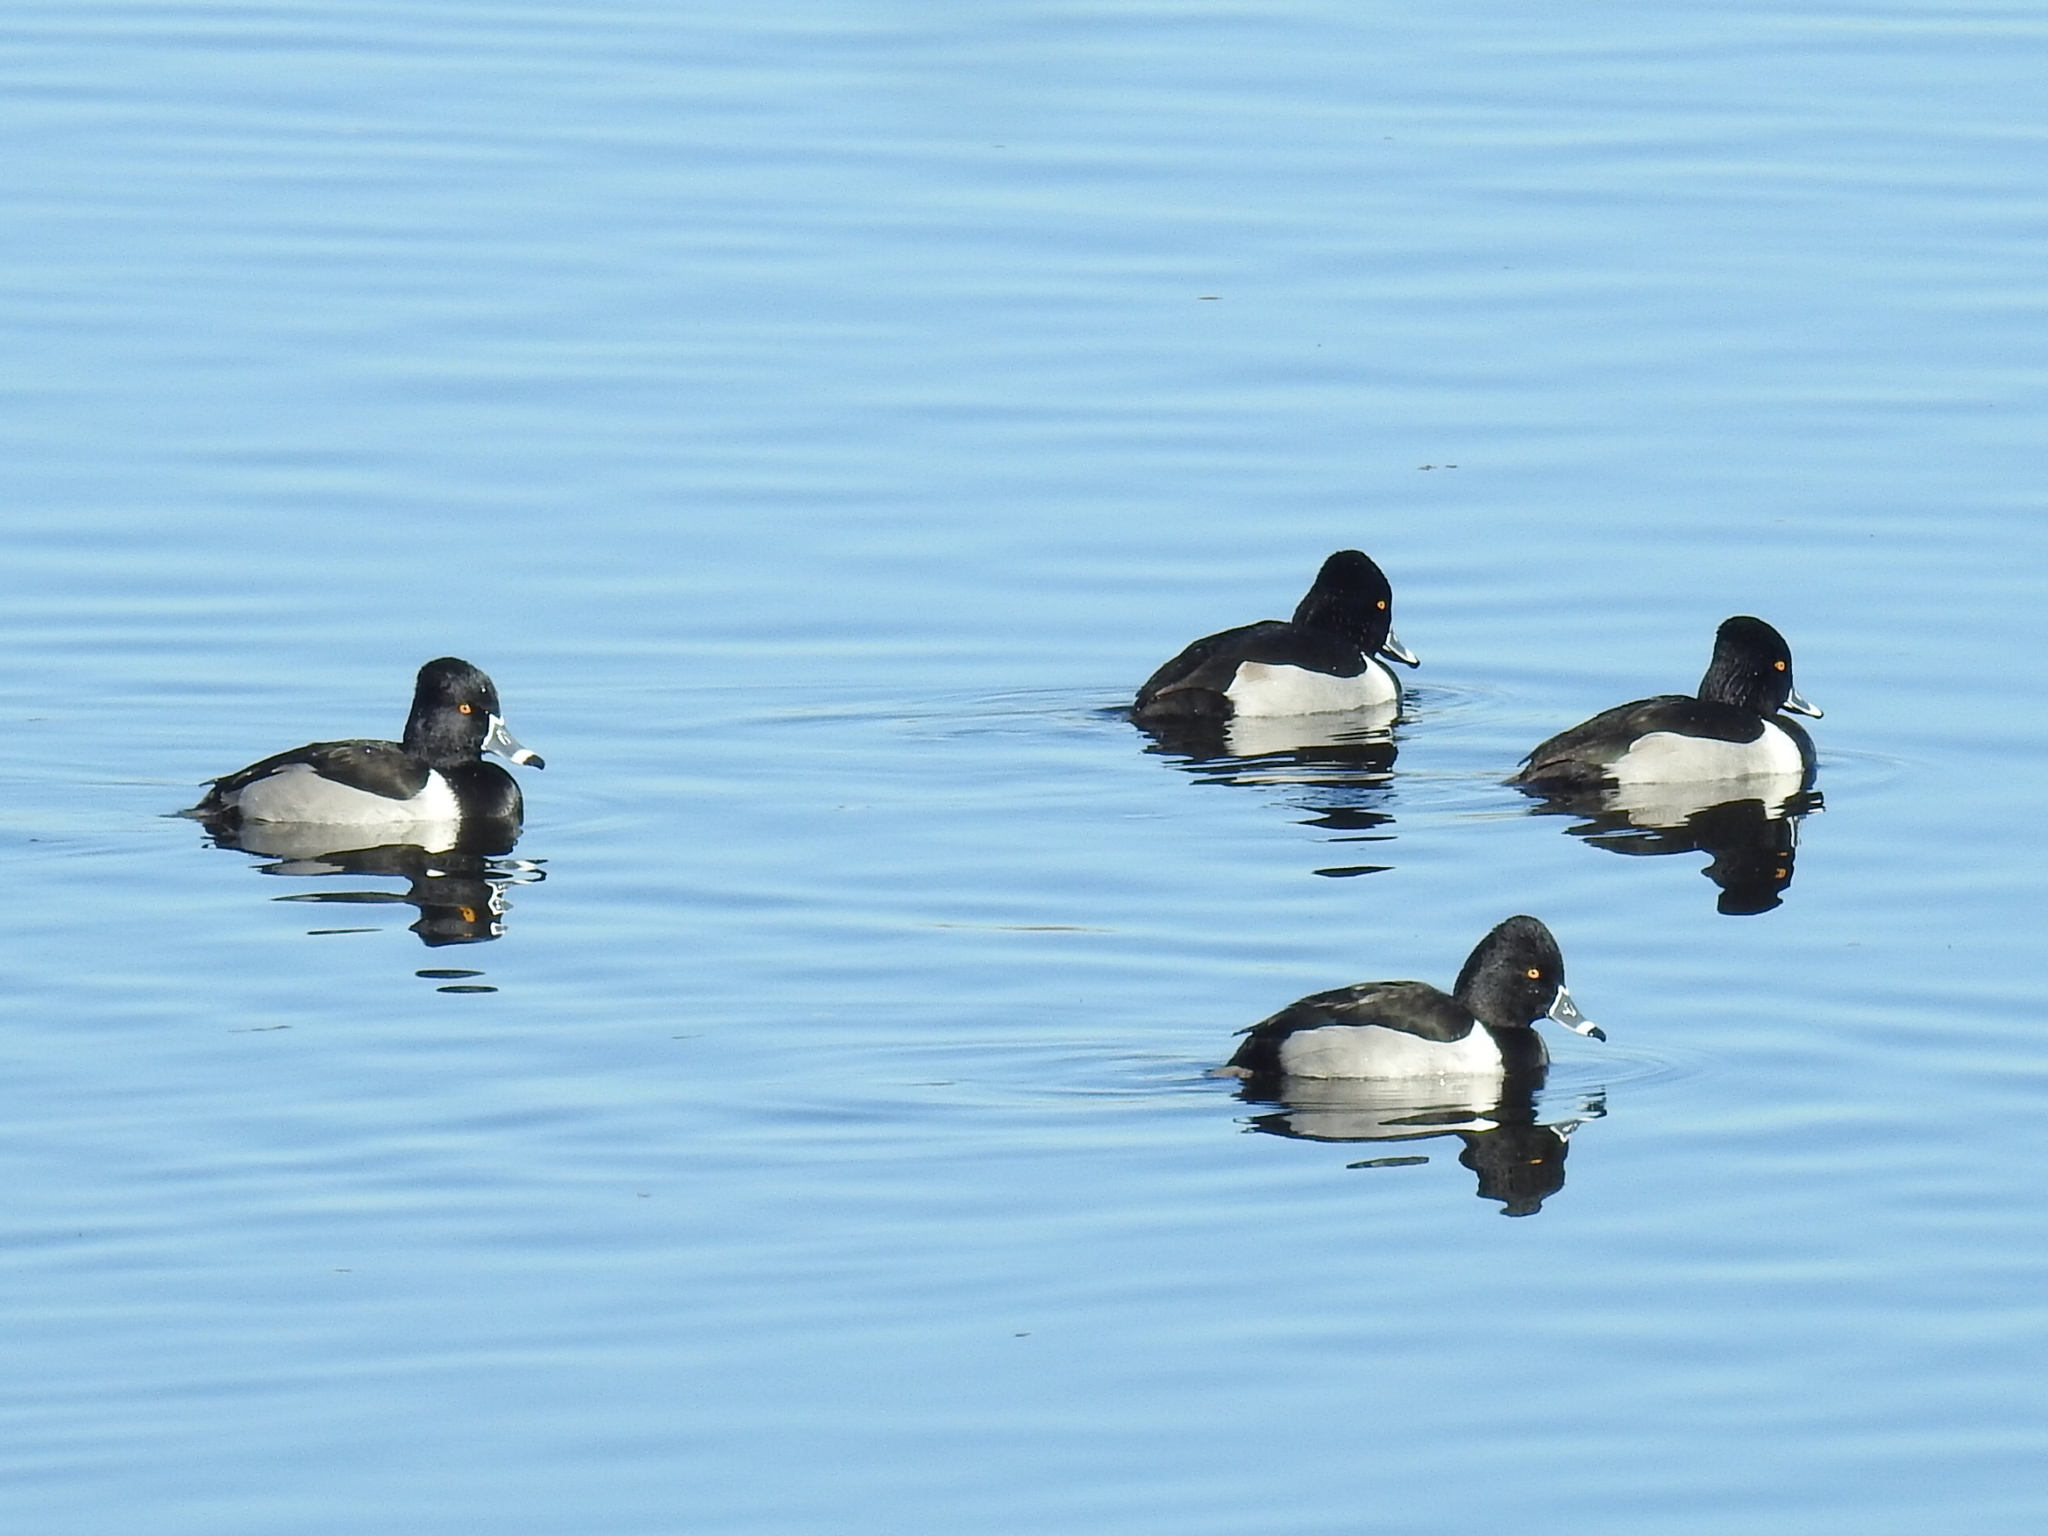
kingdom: Animalia
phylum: Chordata
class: Aves
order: Anseriformes
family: Anatidae
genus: Aythya
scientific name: Aythya collaris
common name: Ring-necked duck
